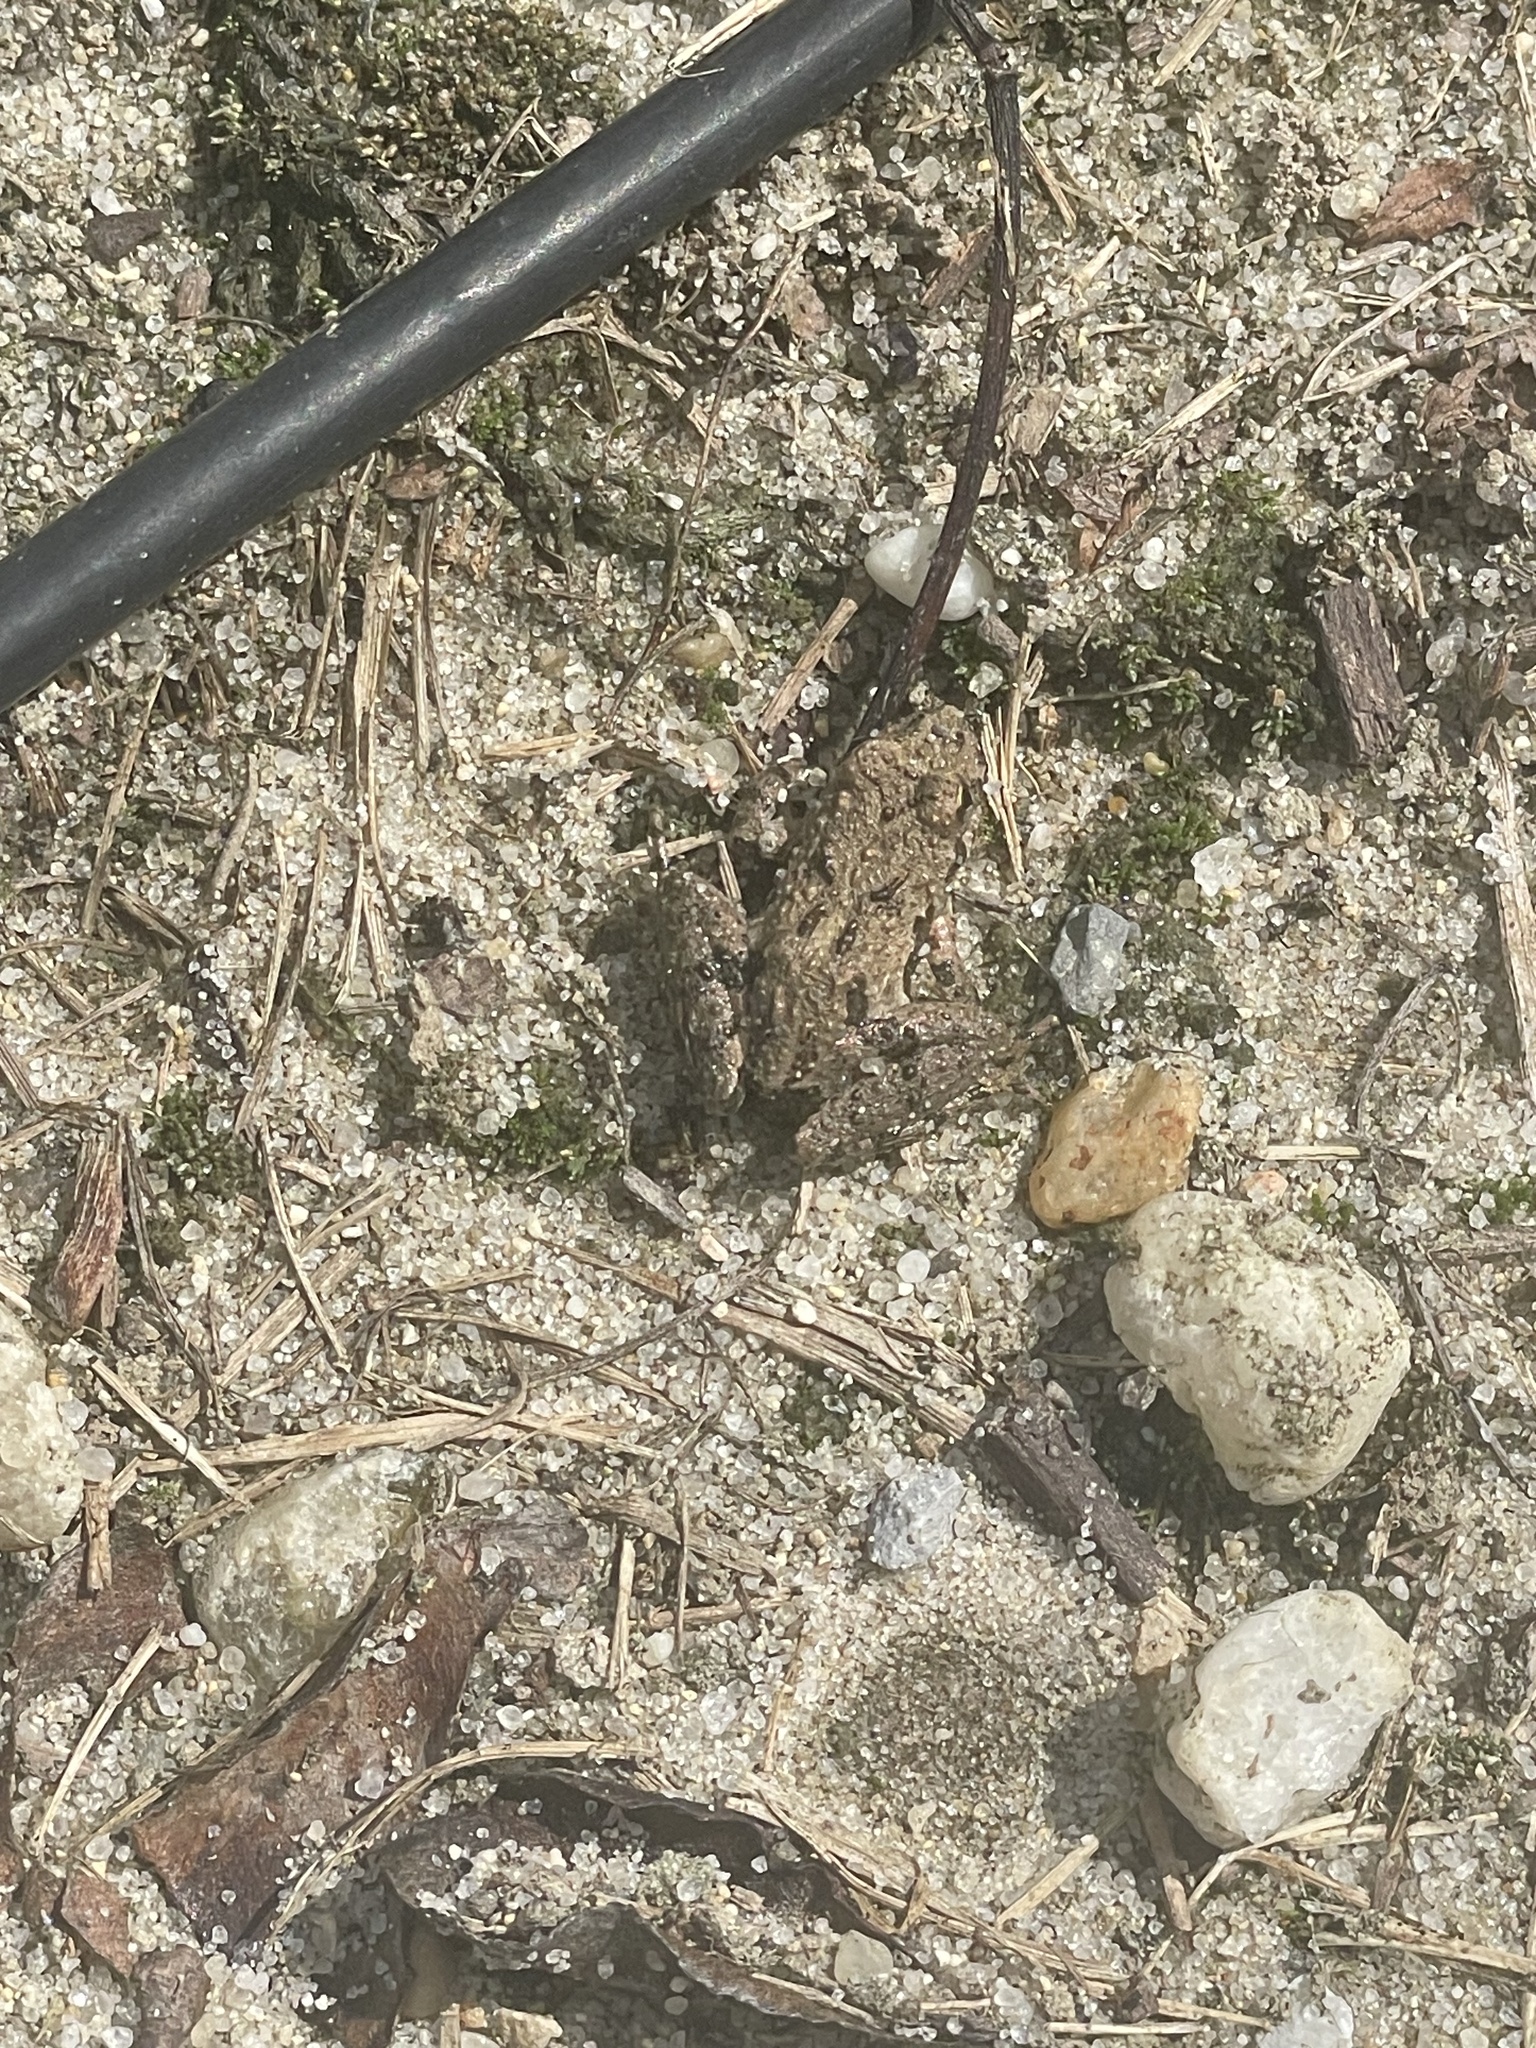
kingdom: Animalia
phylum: Chordata
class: Amphibia
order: Anura
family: Hylidae
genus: Acris
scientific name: Acris crepitans
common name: Northern cricket frog
